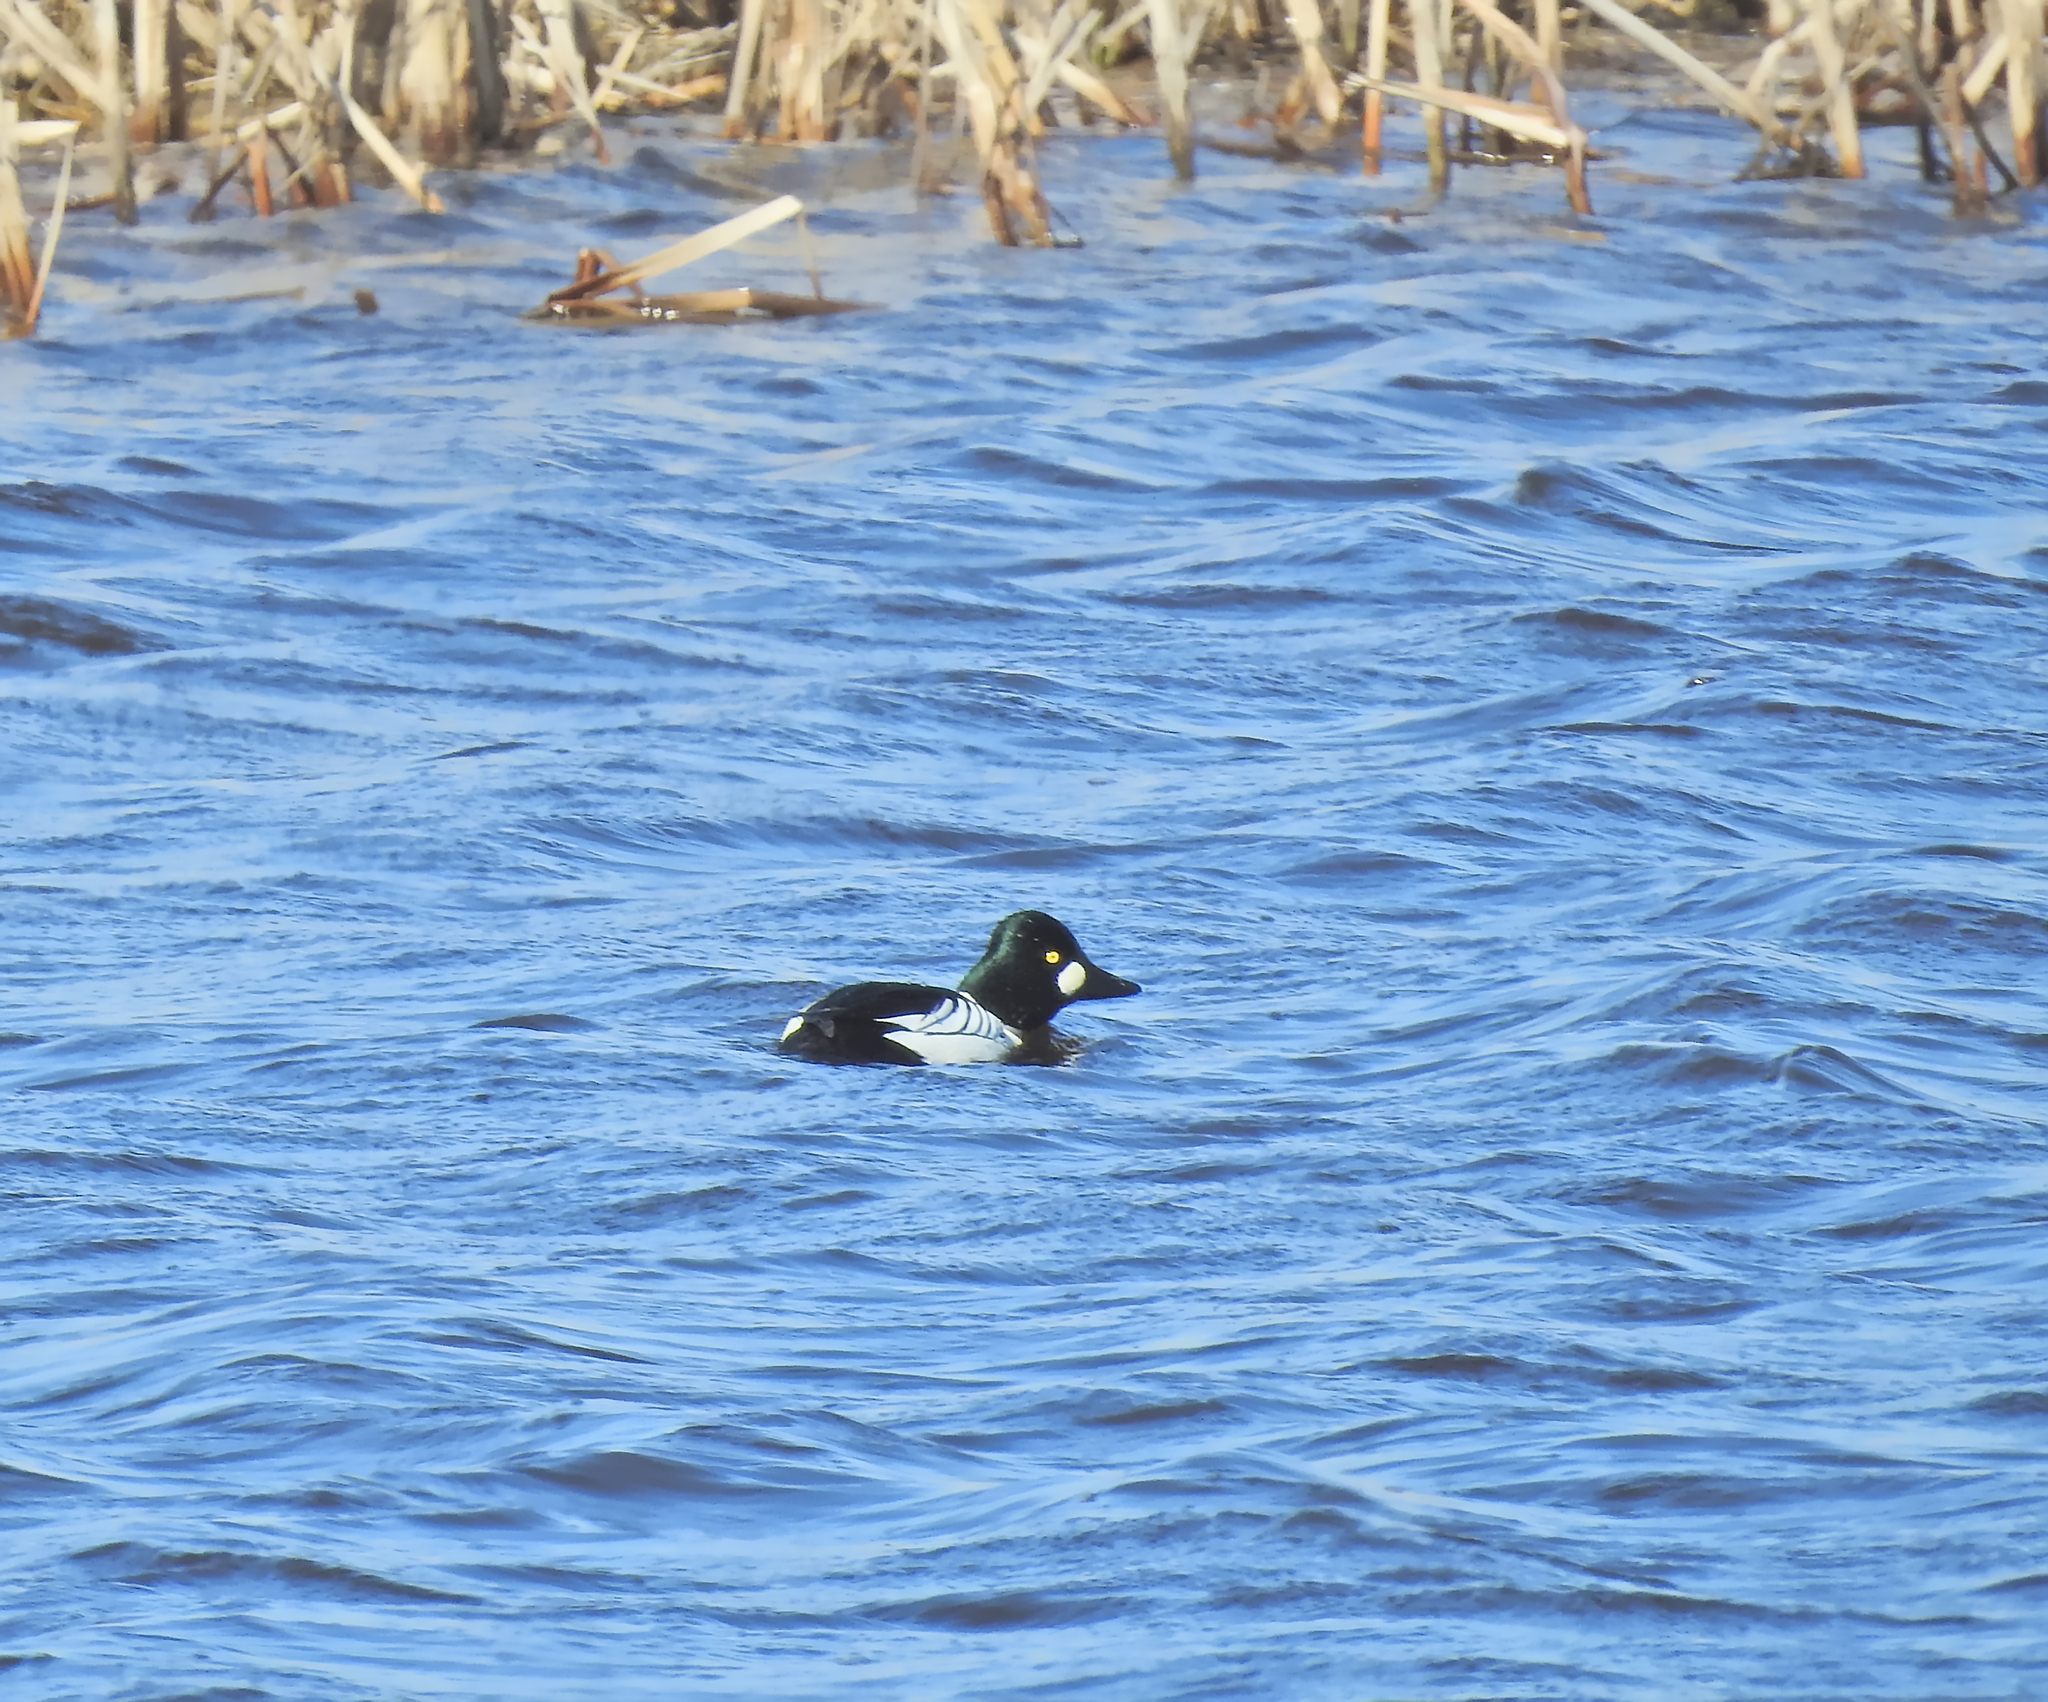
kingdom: Animalia
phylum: Chordata
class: Aves
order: Anseriformes
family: Anatidae
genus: Bucephala
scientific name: Bucephala clangula
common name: Common goldeneye
